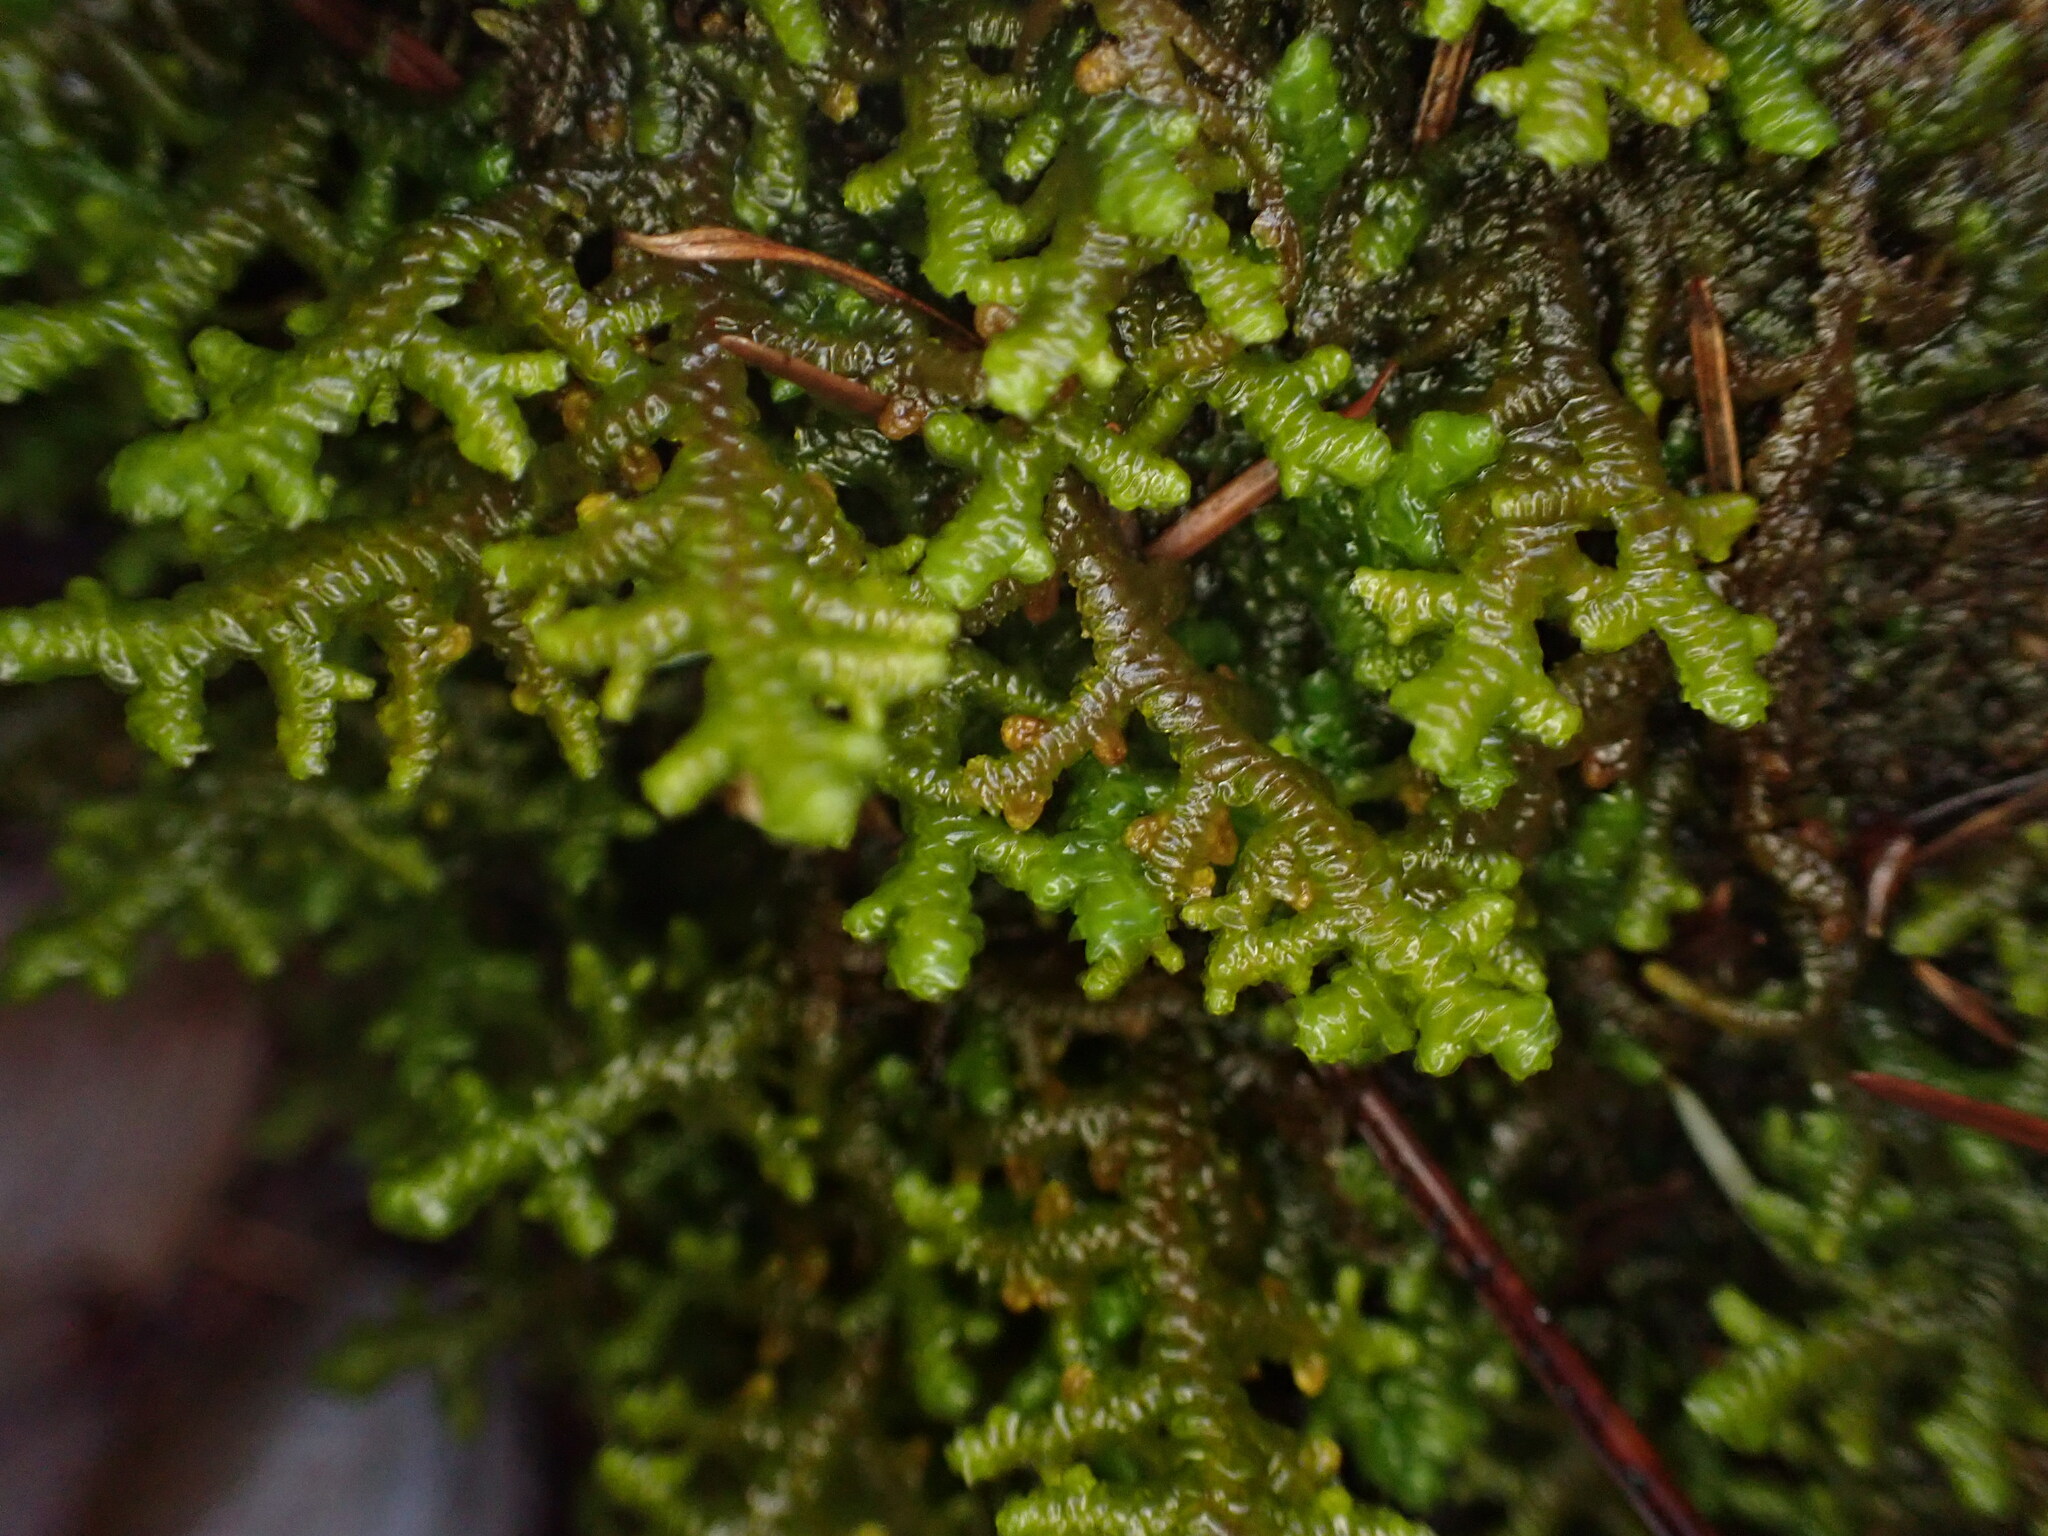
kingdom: Plantae
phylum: Marchantiophyta
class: Jungermanniopsida
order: Porellales
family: Porellaceae
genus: Porella
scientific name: Porella navicularis
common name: Tree ruffle liverwort
